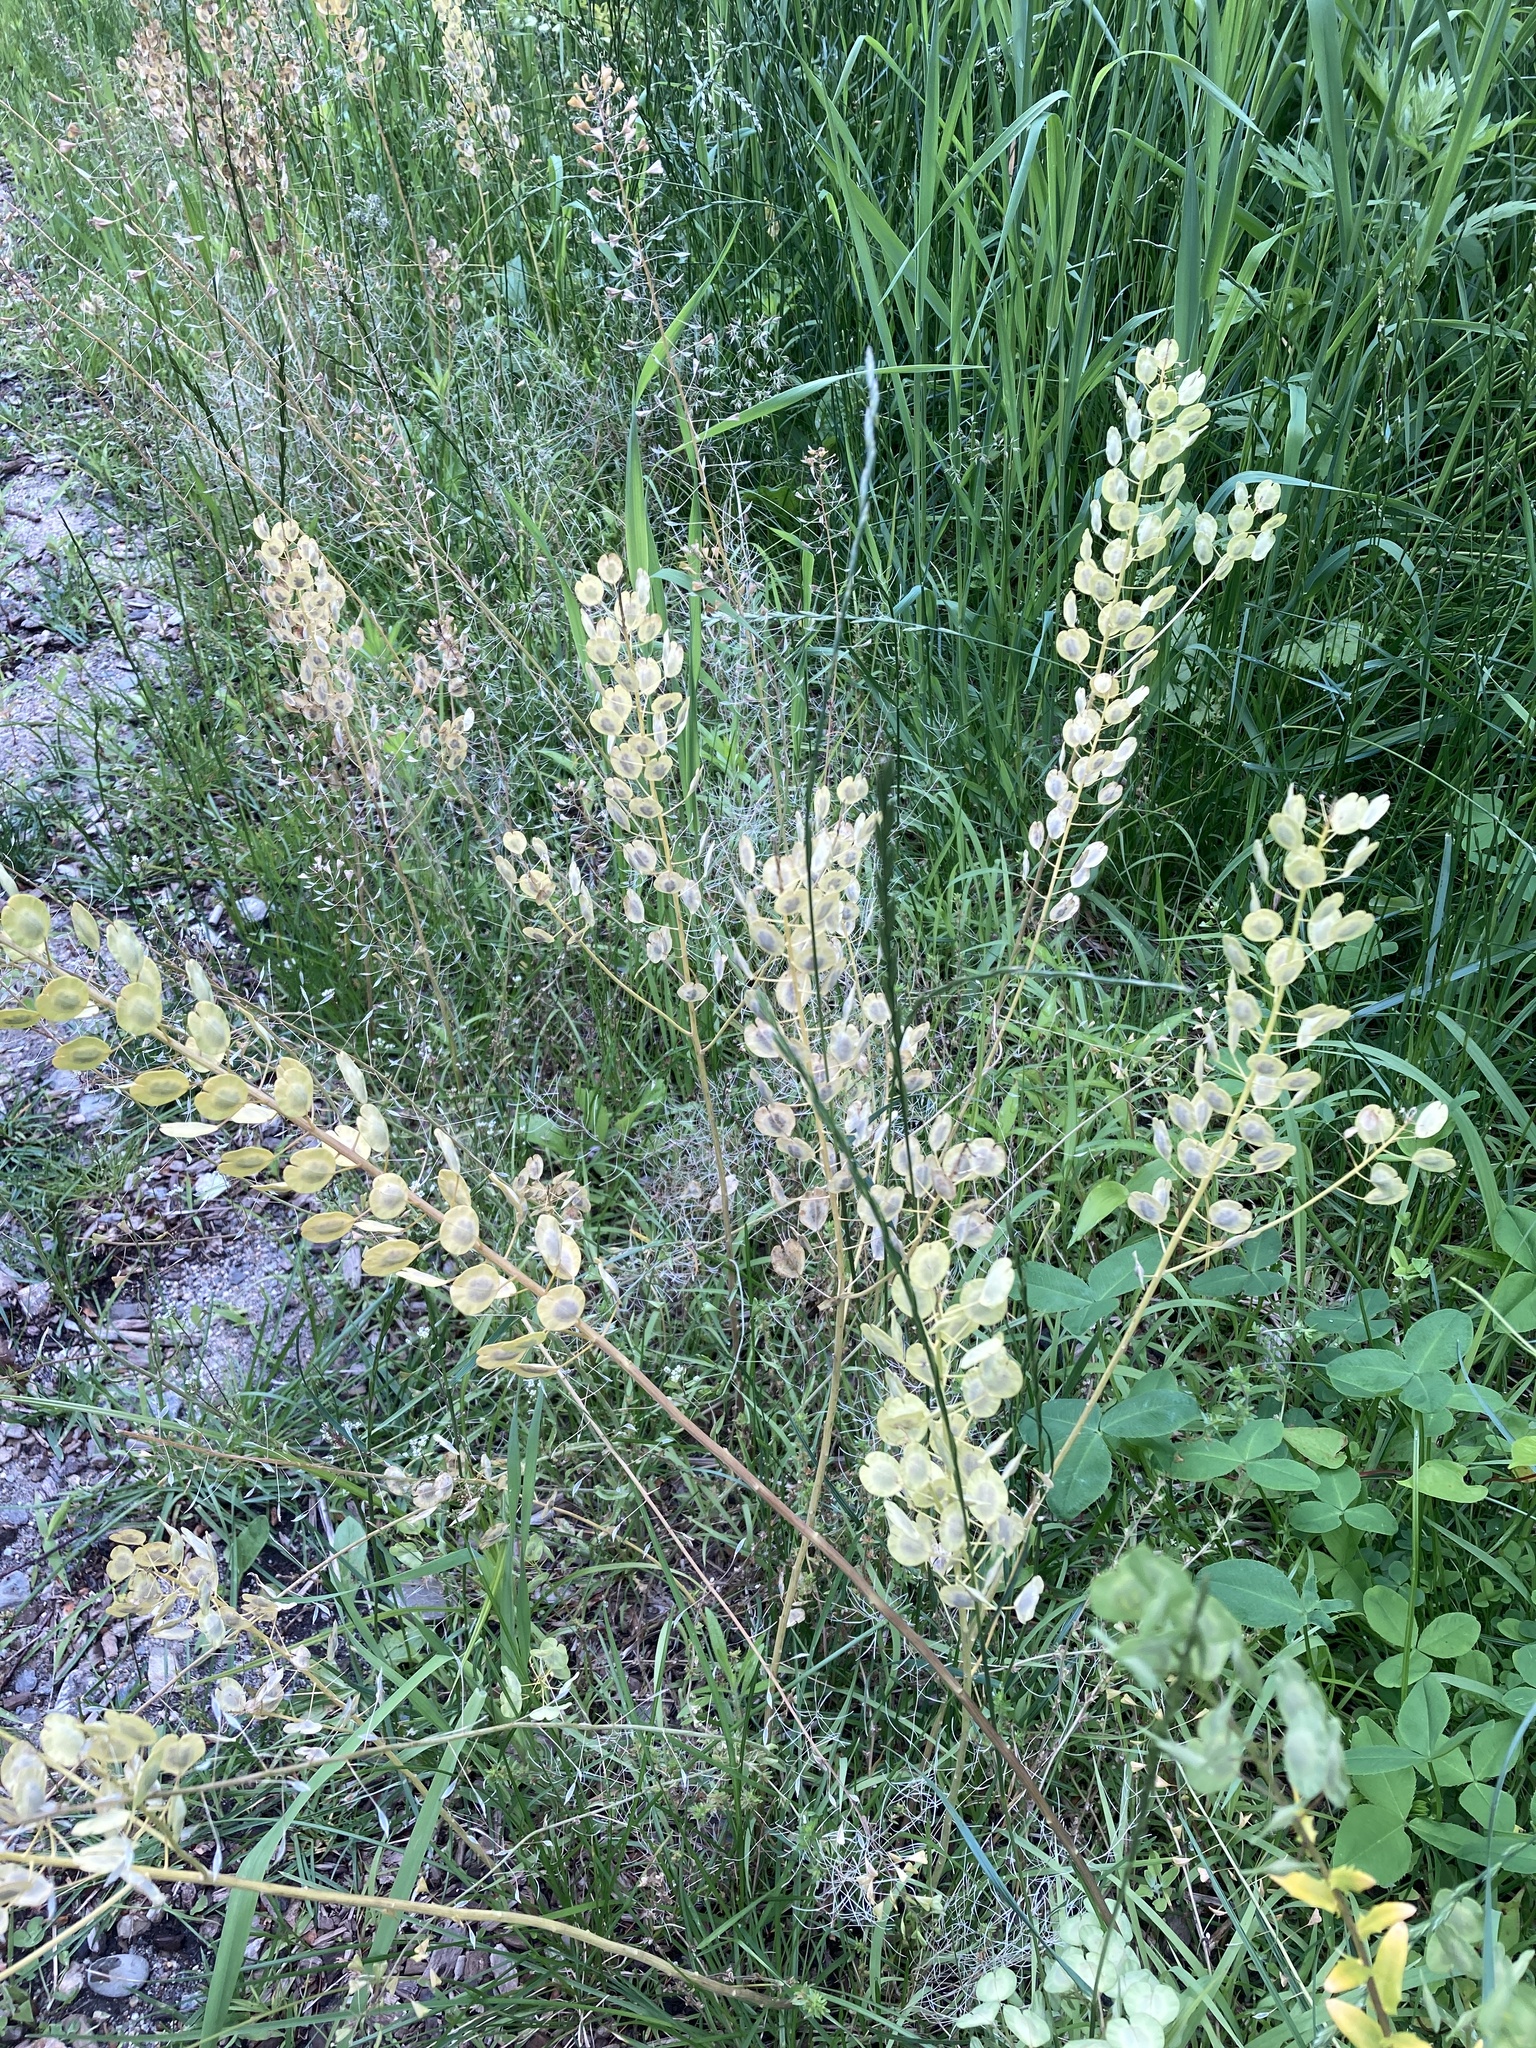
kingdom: Plantae
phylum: Tracheophyta
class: Magnoliopsida
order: Brassicales
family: Brassicaceae
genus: Thlaspi
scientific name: Thlaspi arvense
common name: Field pennycress
